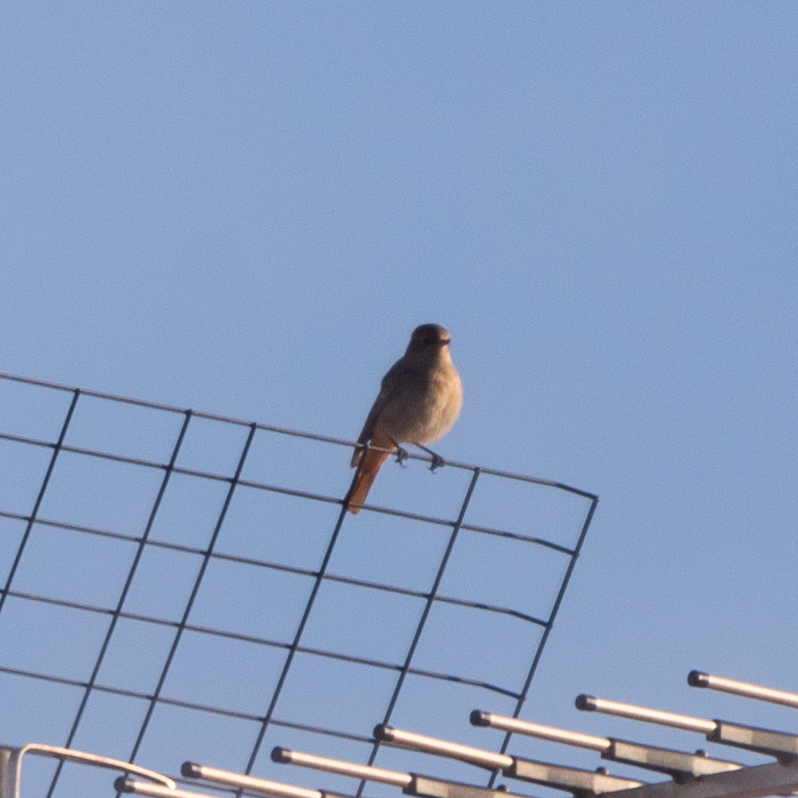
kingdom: Animalia
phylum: Chordata
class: Aves
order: Passeriformes
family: Muscicapidae
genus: Phoenicurus
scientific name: Phoenicurus ochruros
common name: Black redstart
